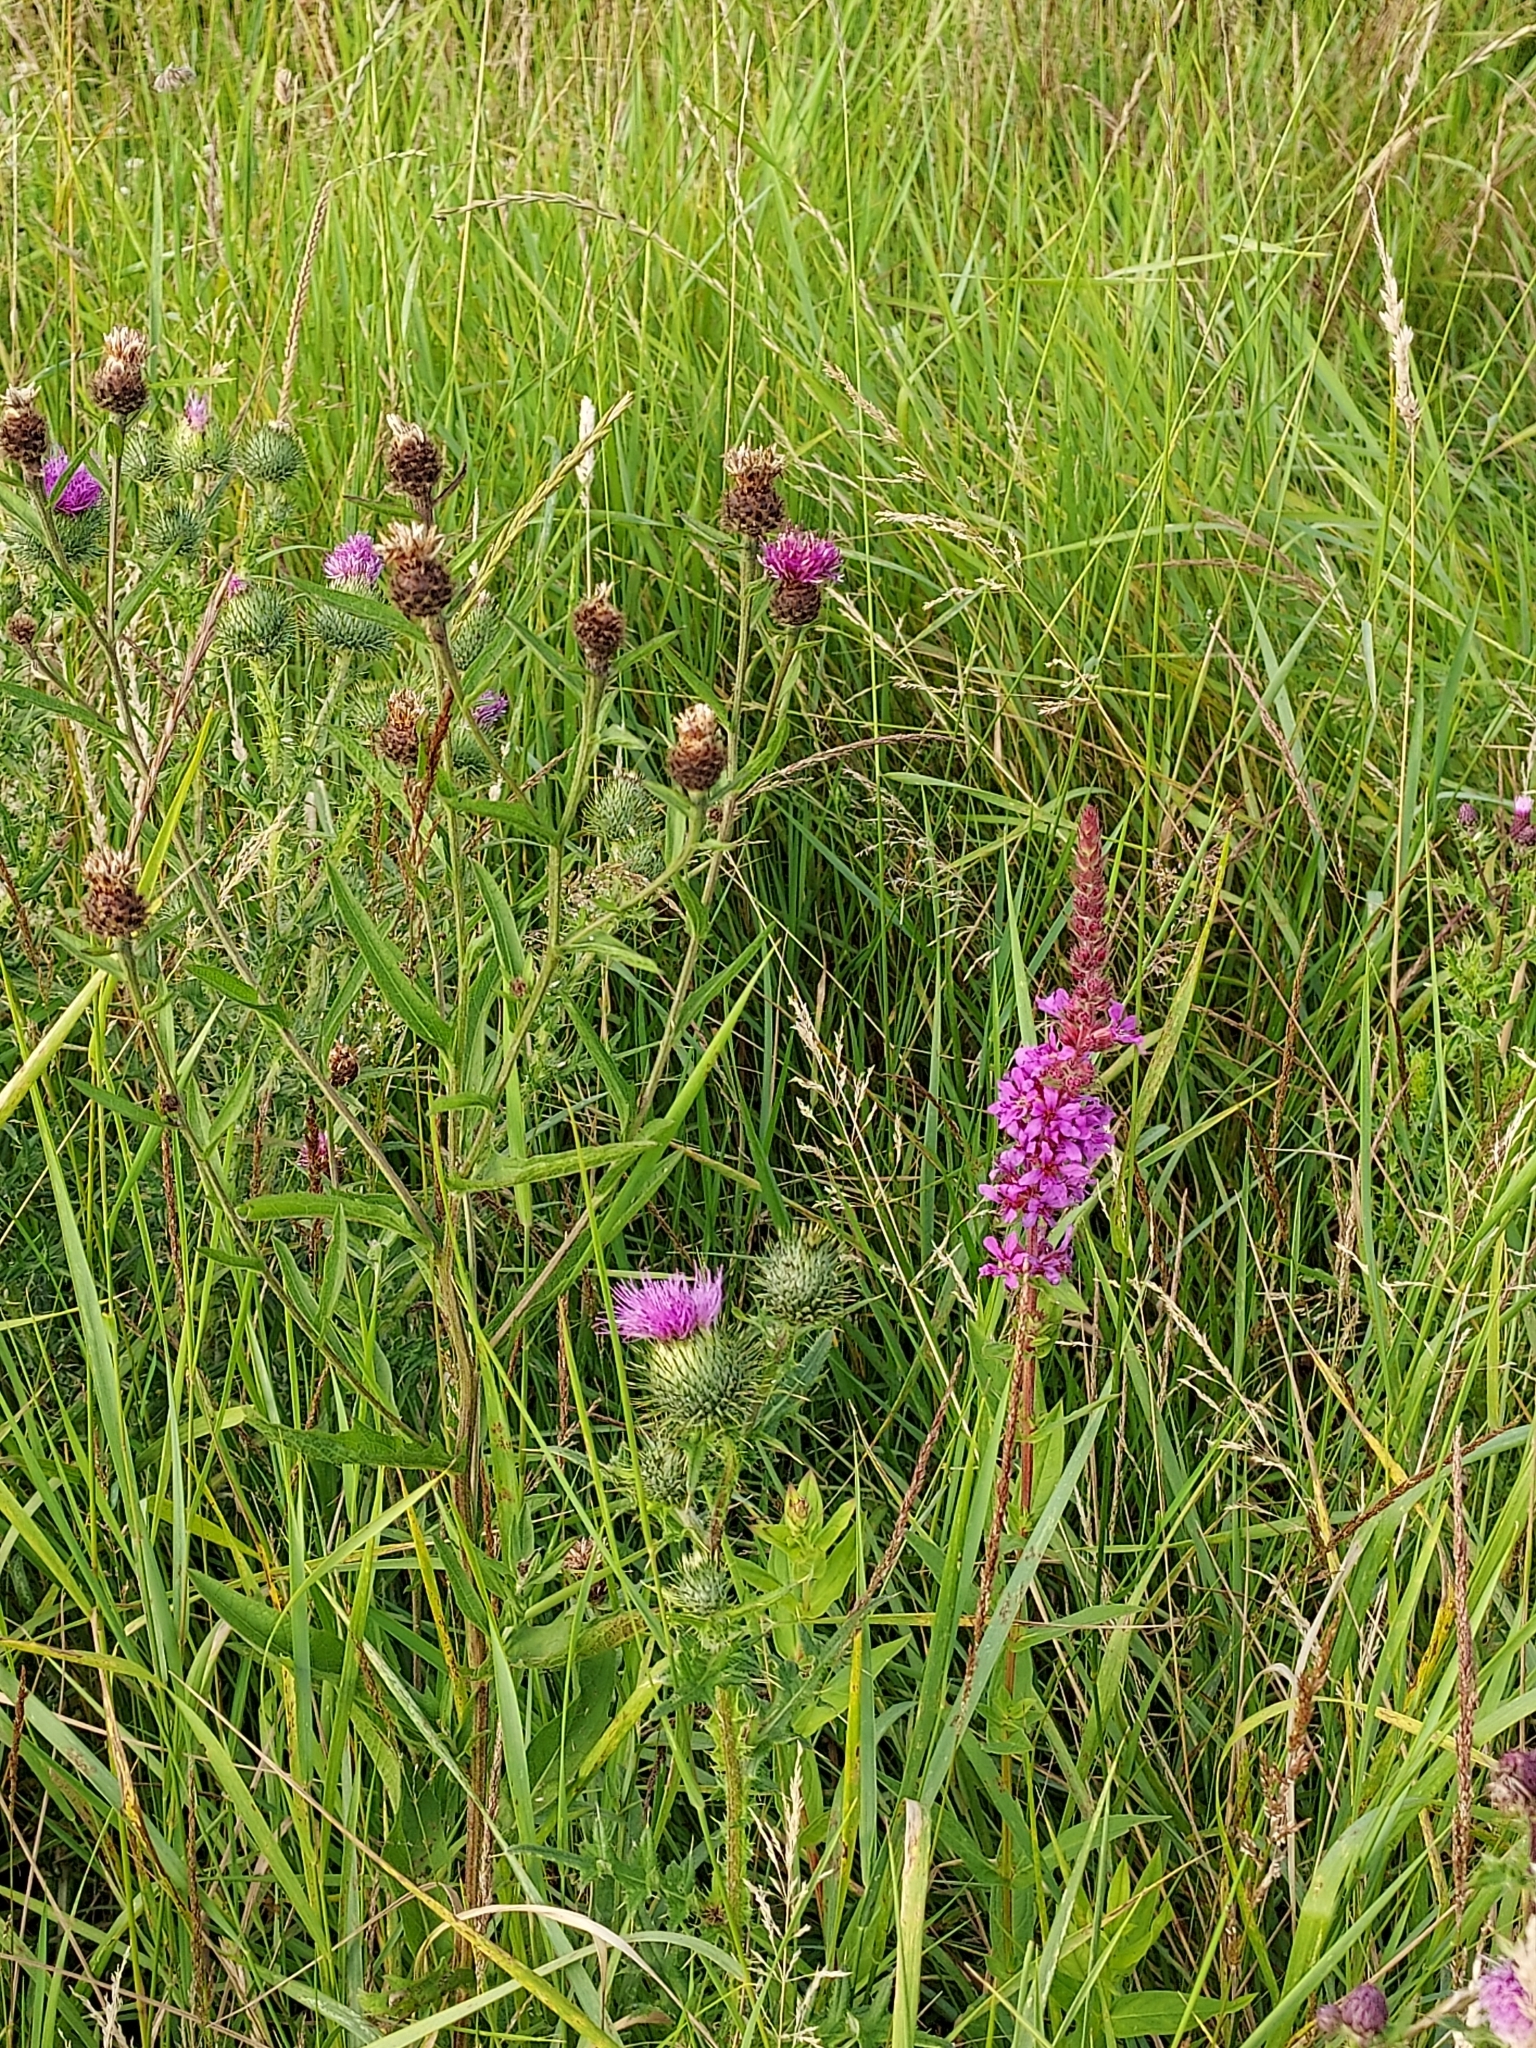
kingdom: Plantae
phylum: Tracheophyta
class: Magnoliopsida
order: Myrtales
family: Lythraceae
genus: Lythrum
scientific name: Lythrum salicaria
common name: Purple loosestrife
